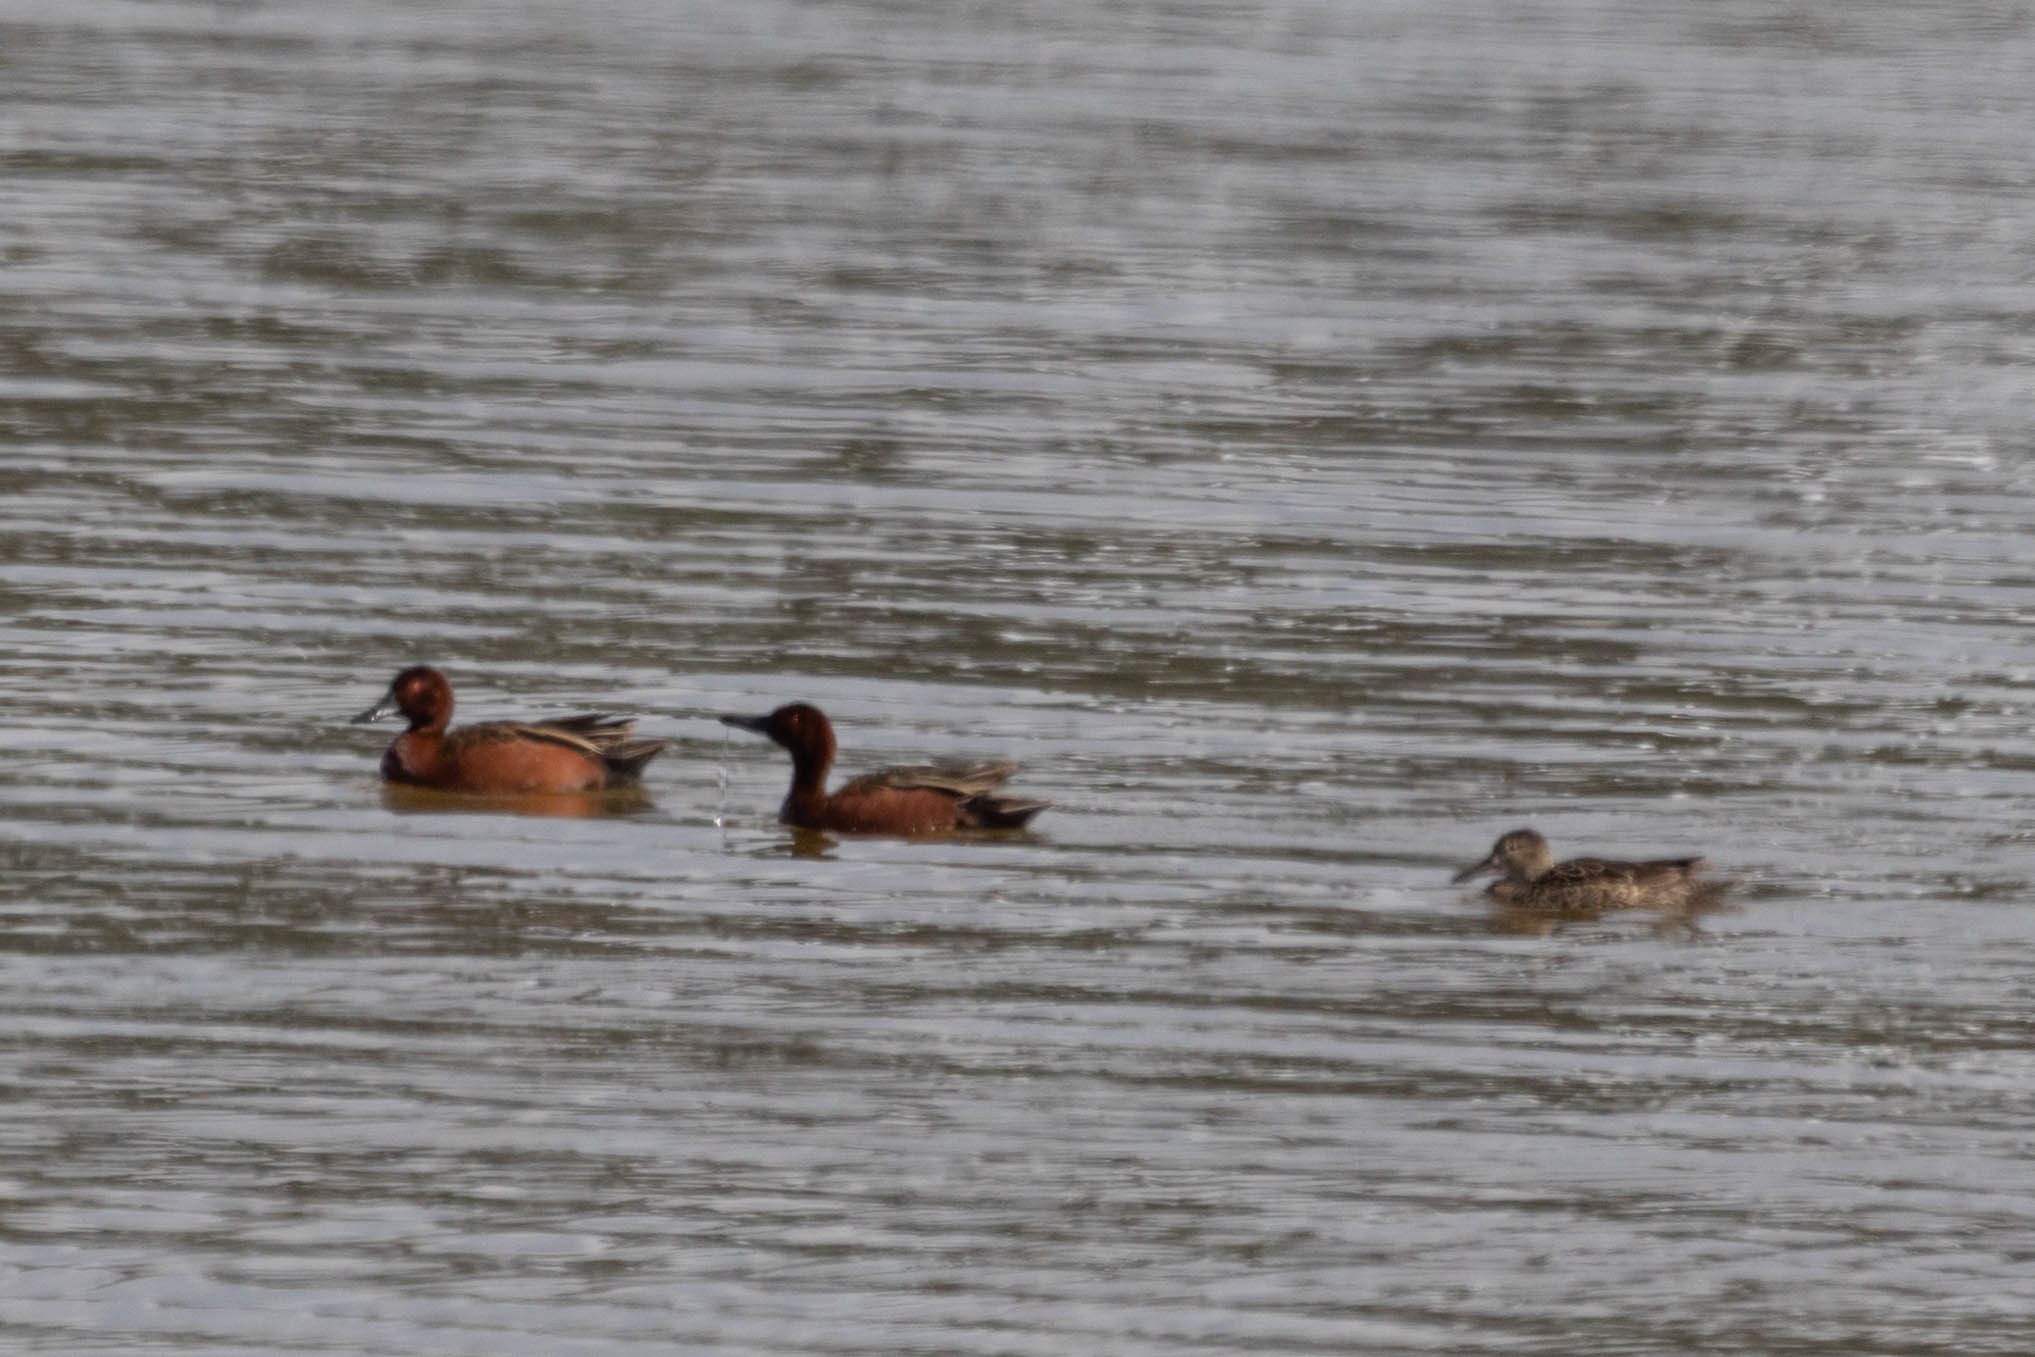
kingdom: Animalia
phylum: Chordata
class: Aves
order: Anseriformes
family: Anatidae
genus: Spatula
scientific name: Spatula cyanoptera
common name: Cinnamon teal
